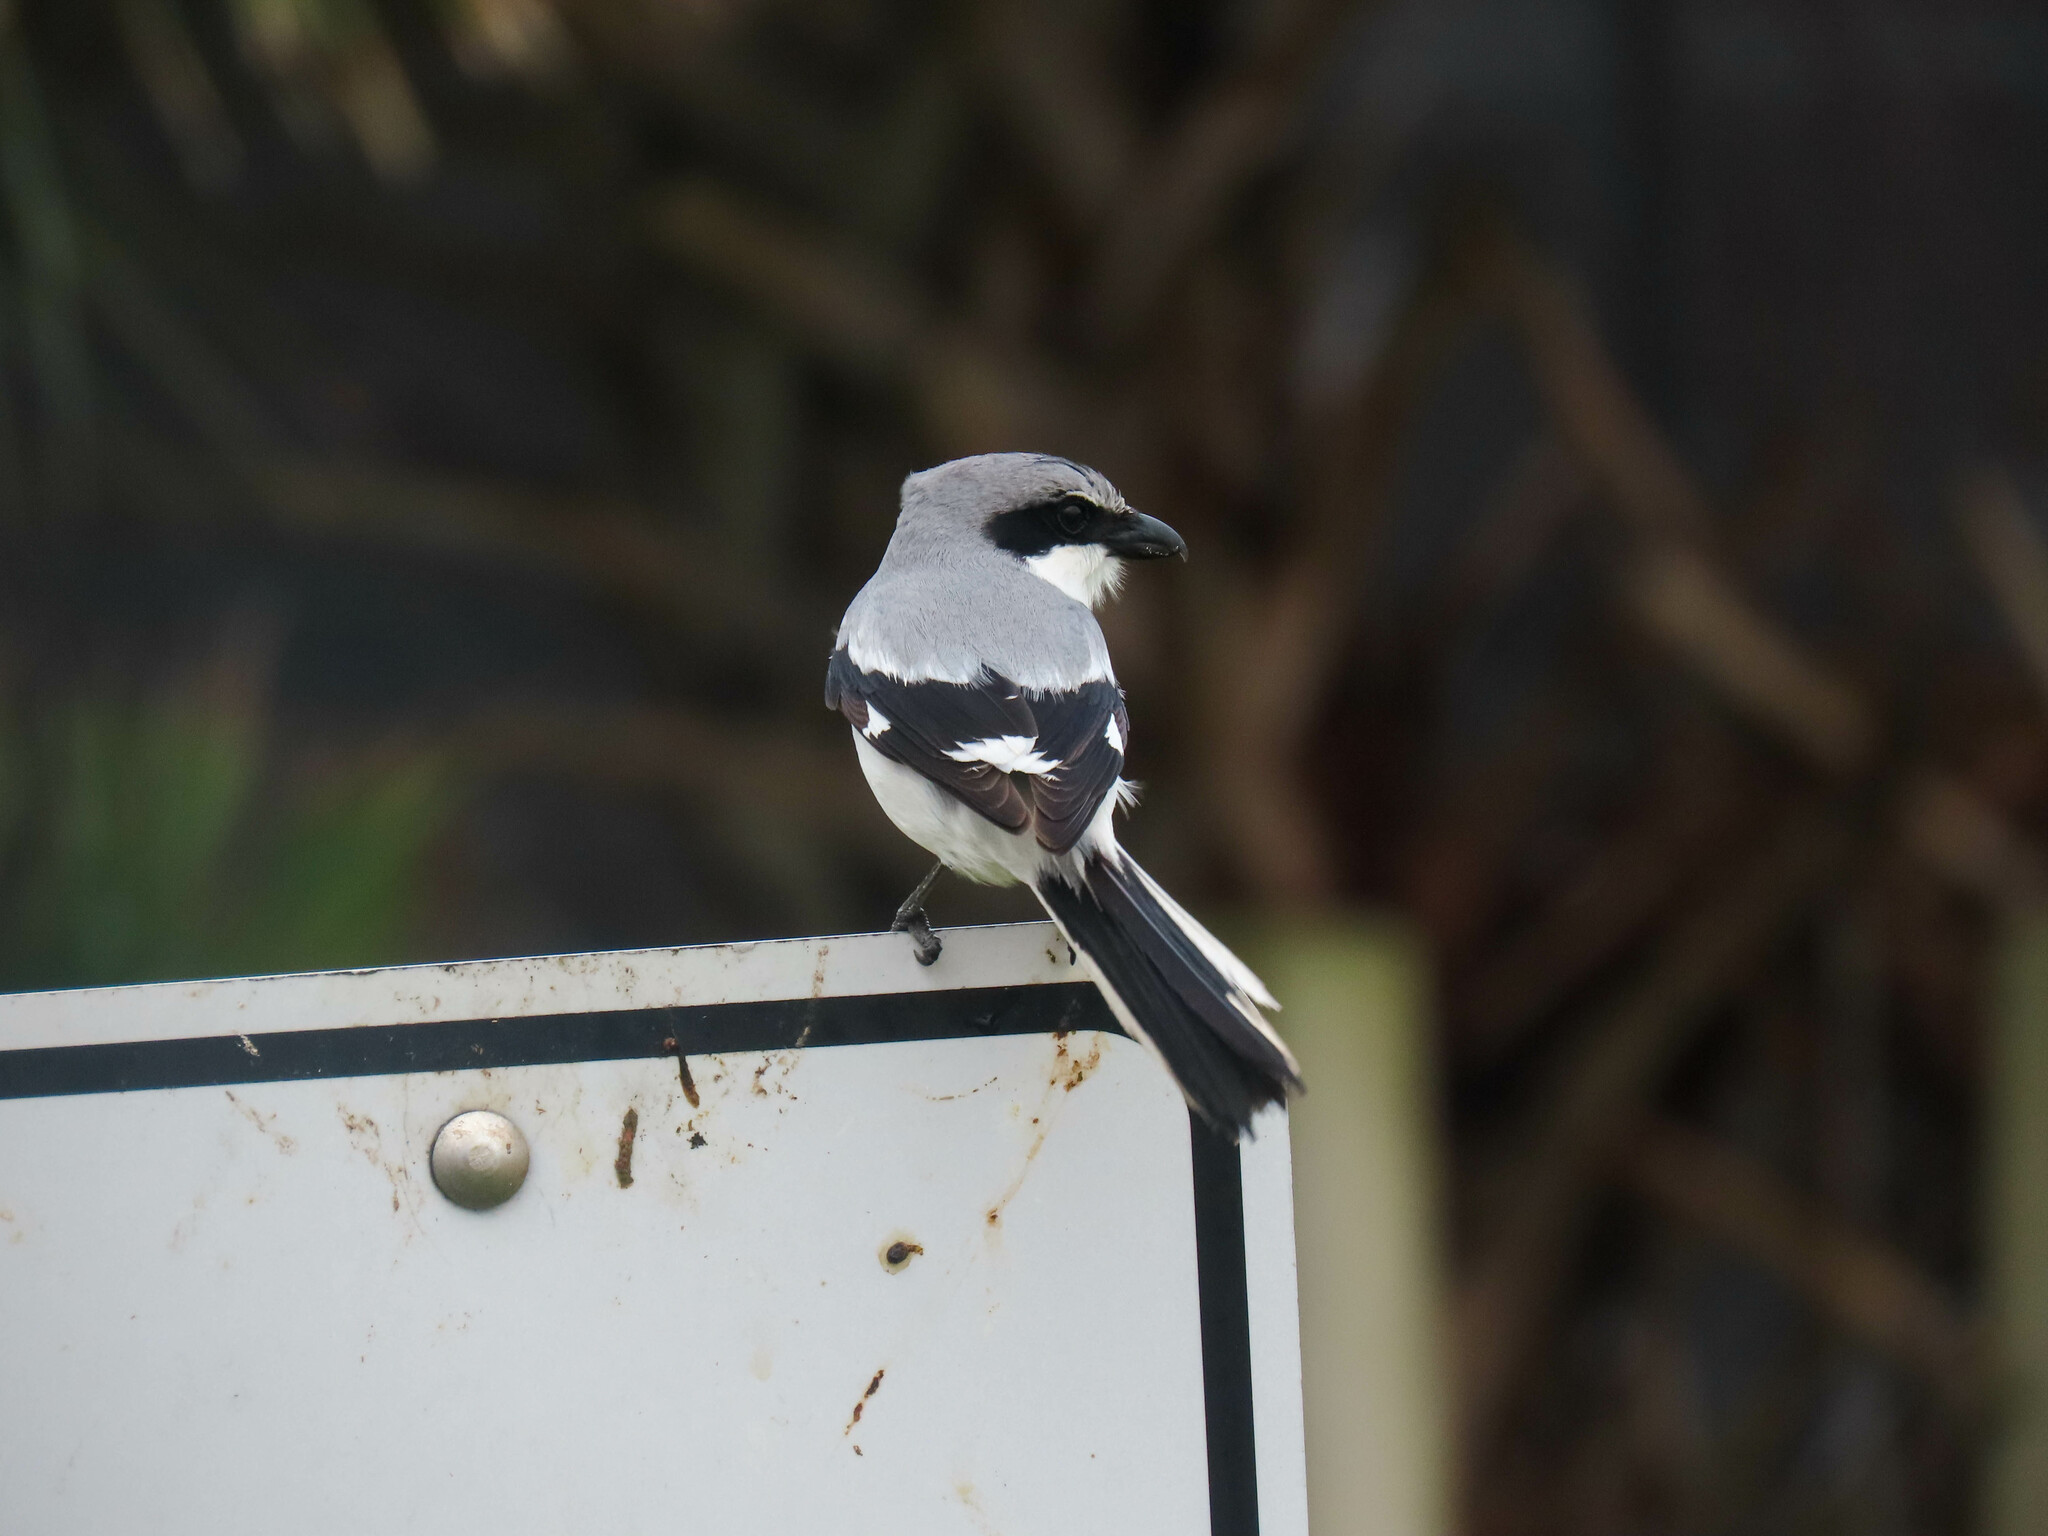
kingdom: Animalia
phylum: Chordata
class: Aves
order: Passeriformes
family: Laniidae
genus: Lanius
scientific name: Lanius ludovicianus
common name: Loggerhead shrike
